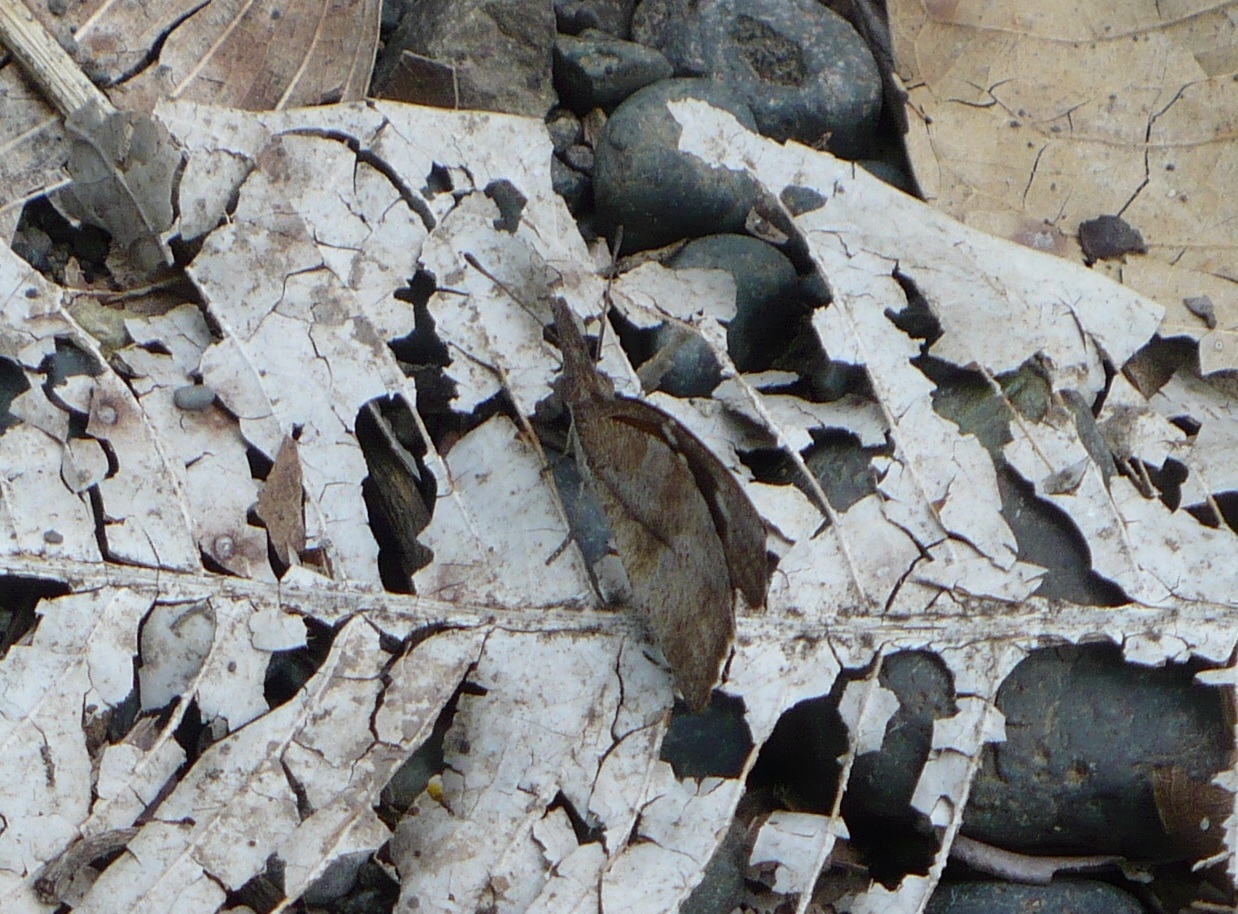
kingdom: Animalia
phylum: Arthropoda
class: Insecta
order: Lepidoptera
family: Nymphalidae
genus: Libytheana
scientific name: Libytheana carinenta
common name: American snout
